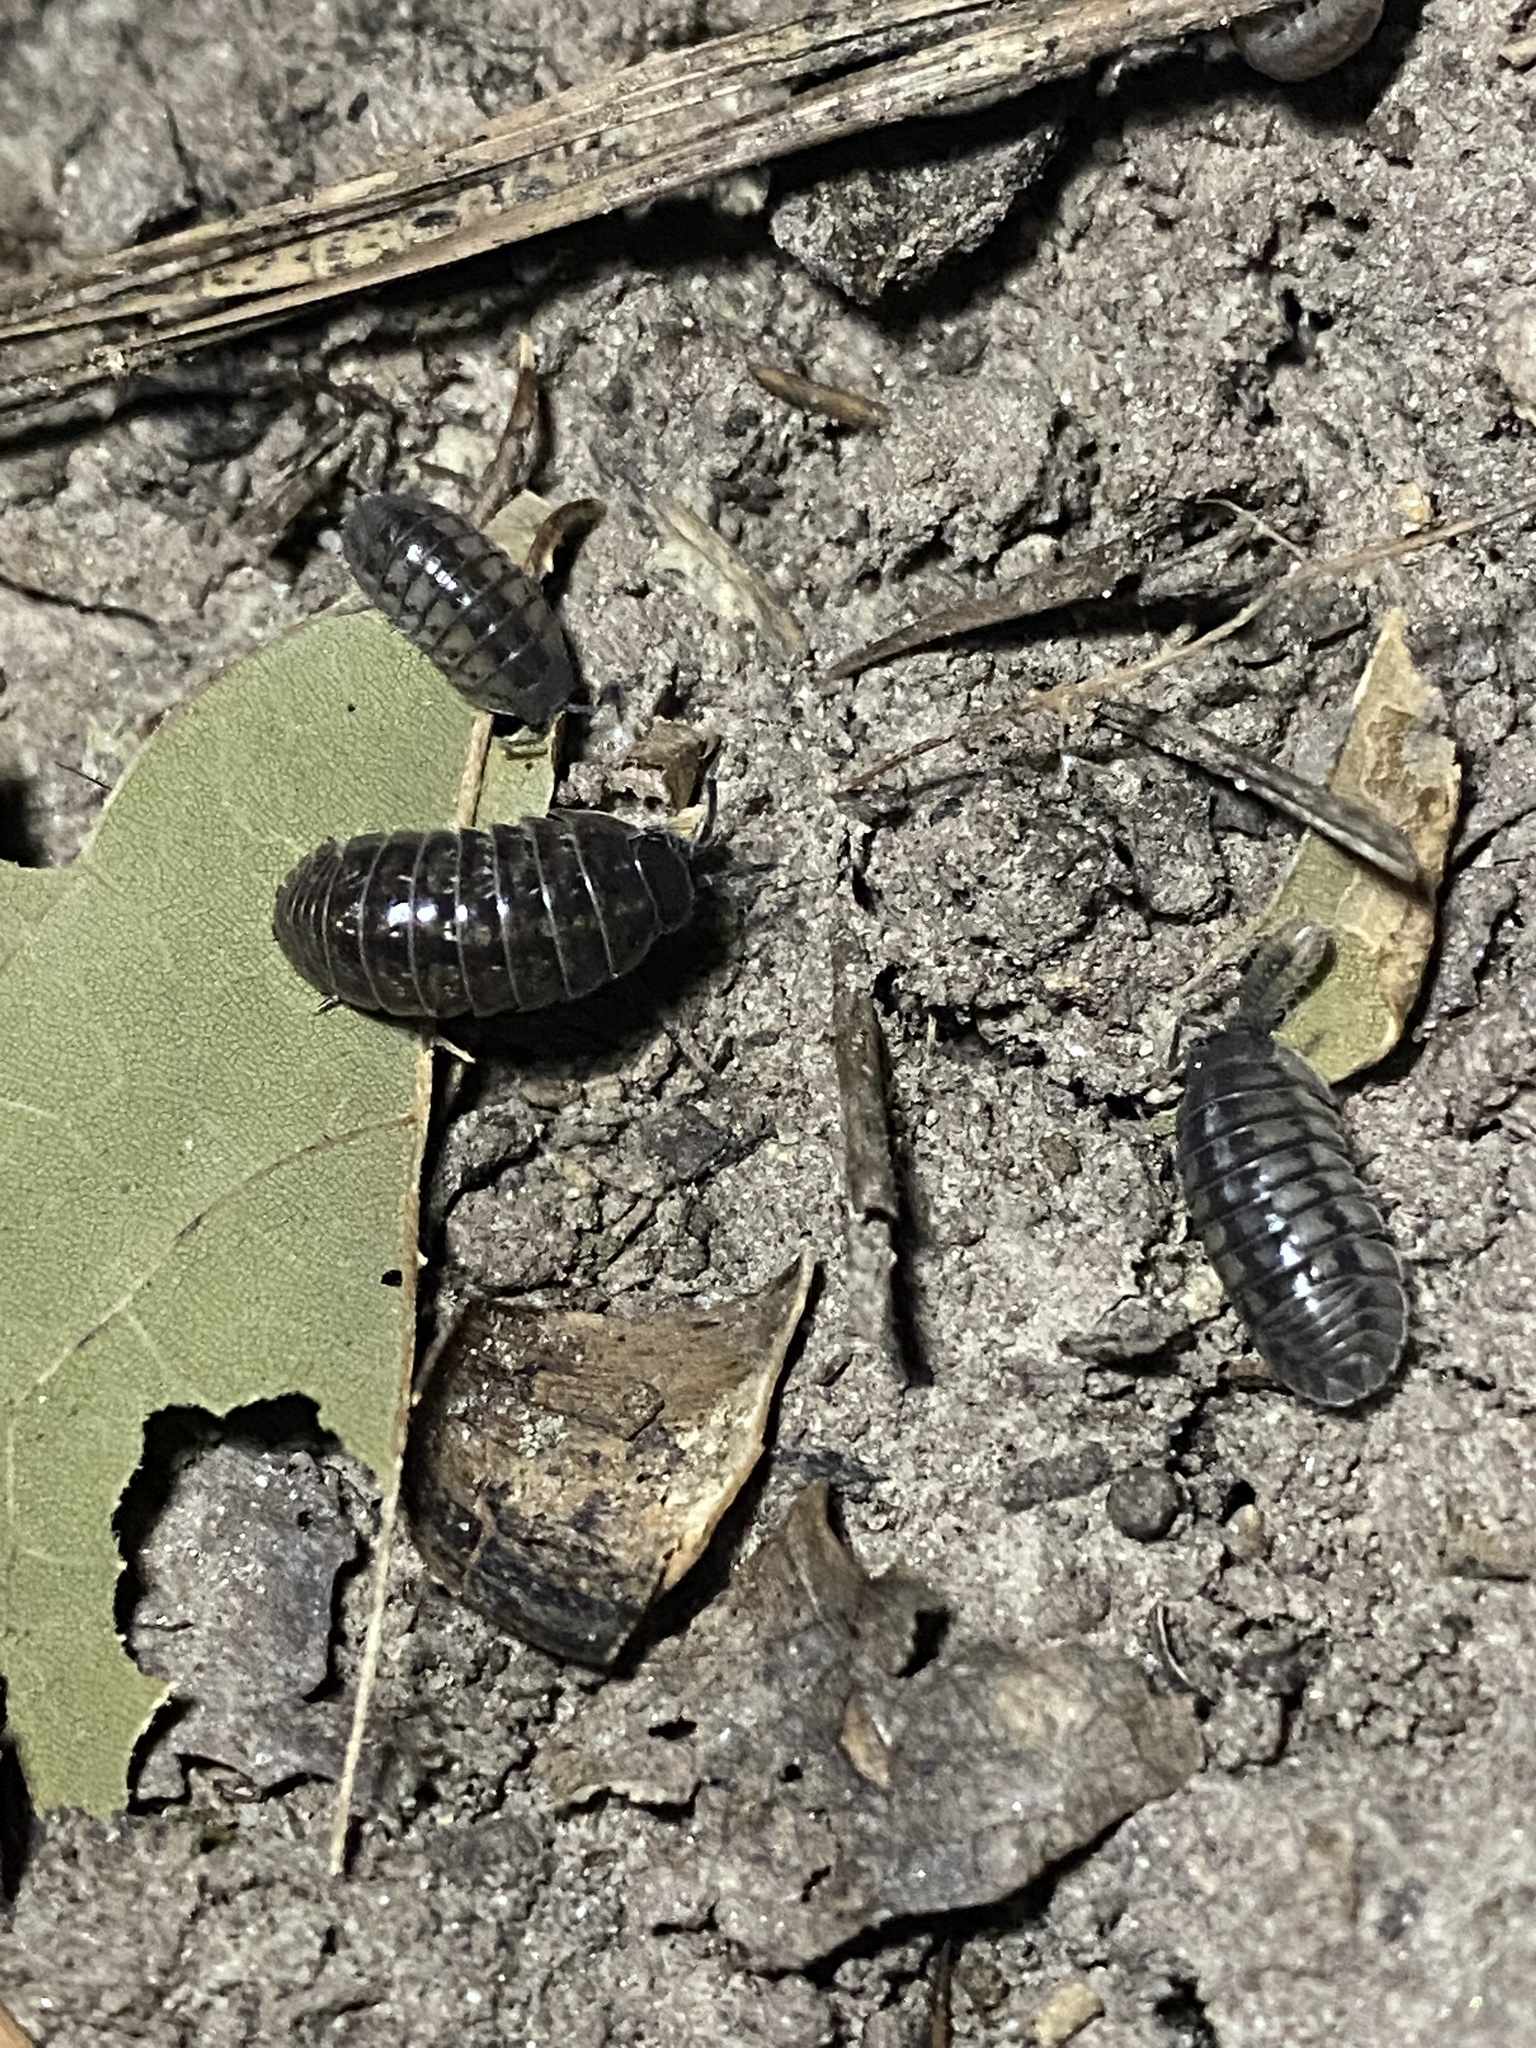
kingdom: Animalia
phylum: Arthropoda
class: Malacostraca
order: Isopoda
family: Armadillidiidae
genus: Armadillidium
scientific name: Armadillidium nasatum
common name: Isopod
